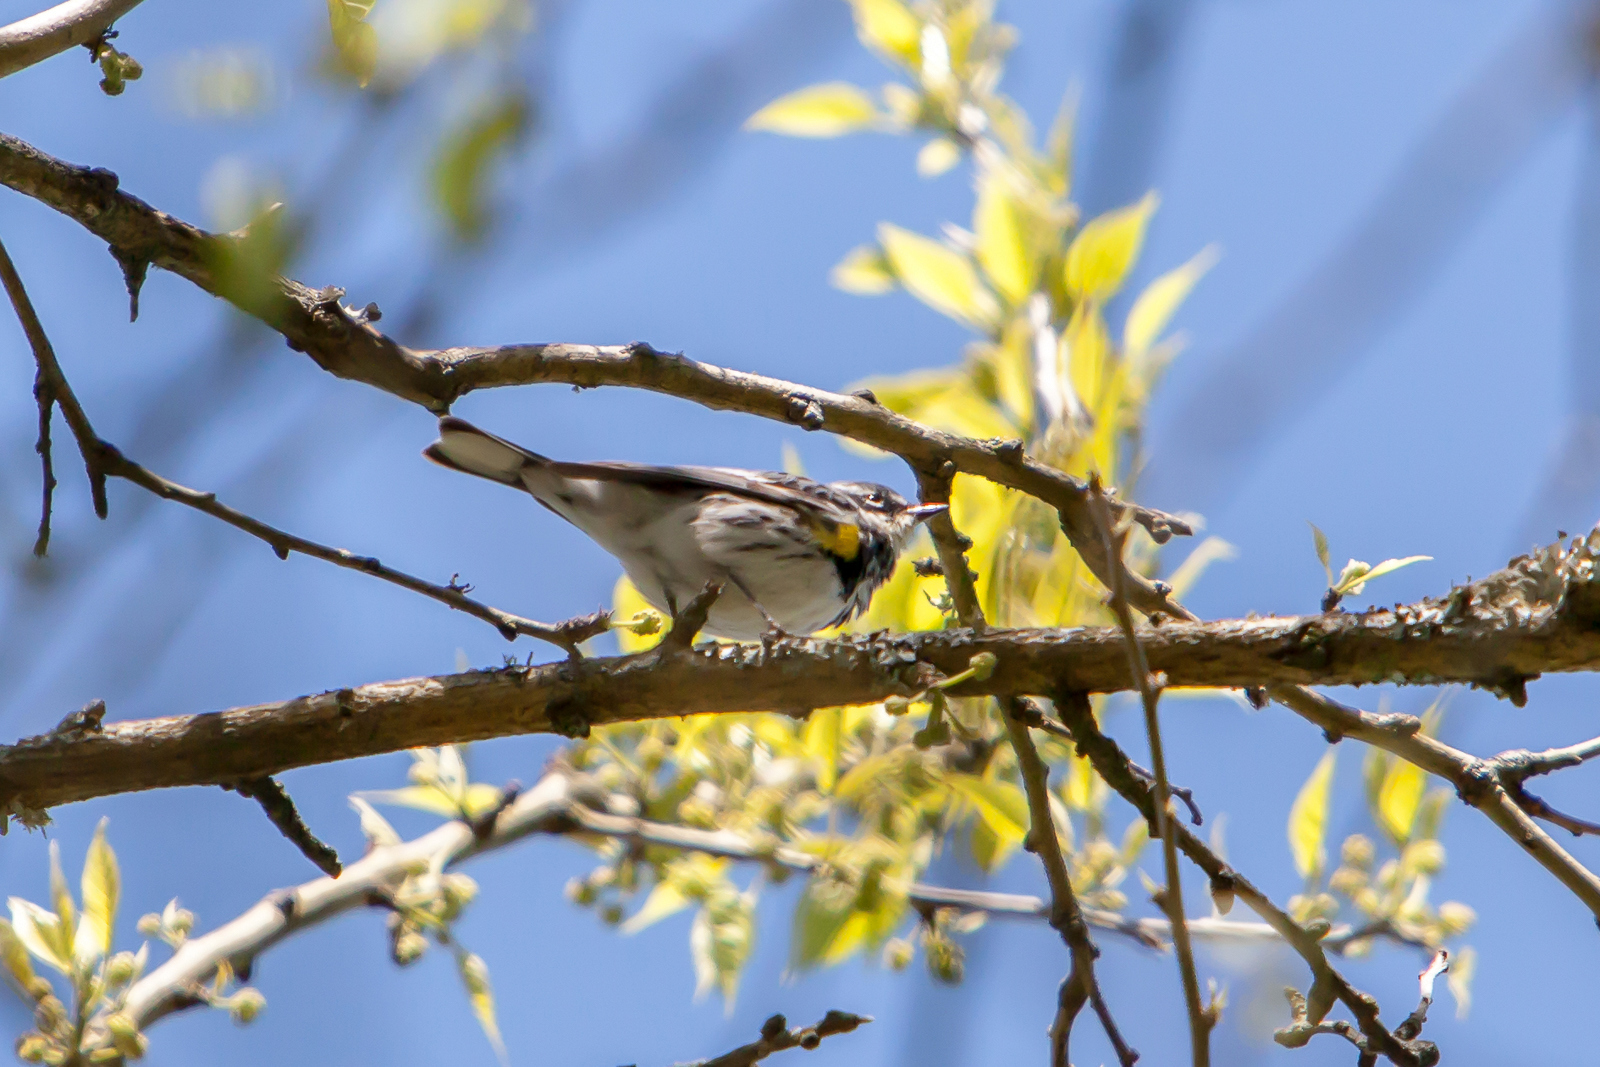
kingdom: Animalia
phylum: Chordata
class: Aves
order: Passeriformes
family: Parulidae
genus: Setophaga
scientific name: Setophaga coronata
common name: Myrtle warbler
